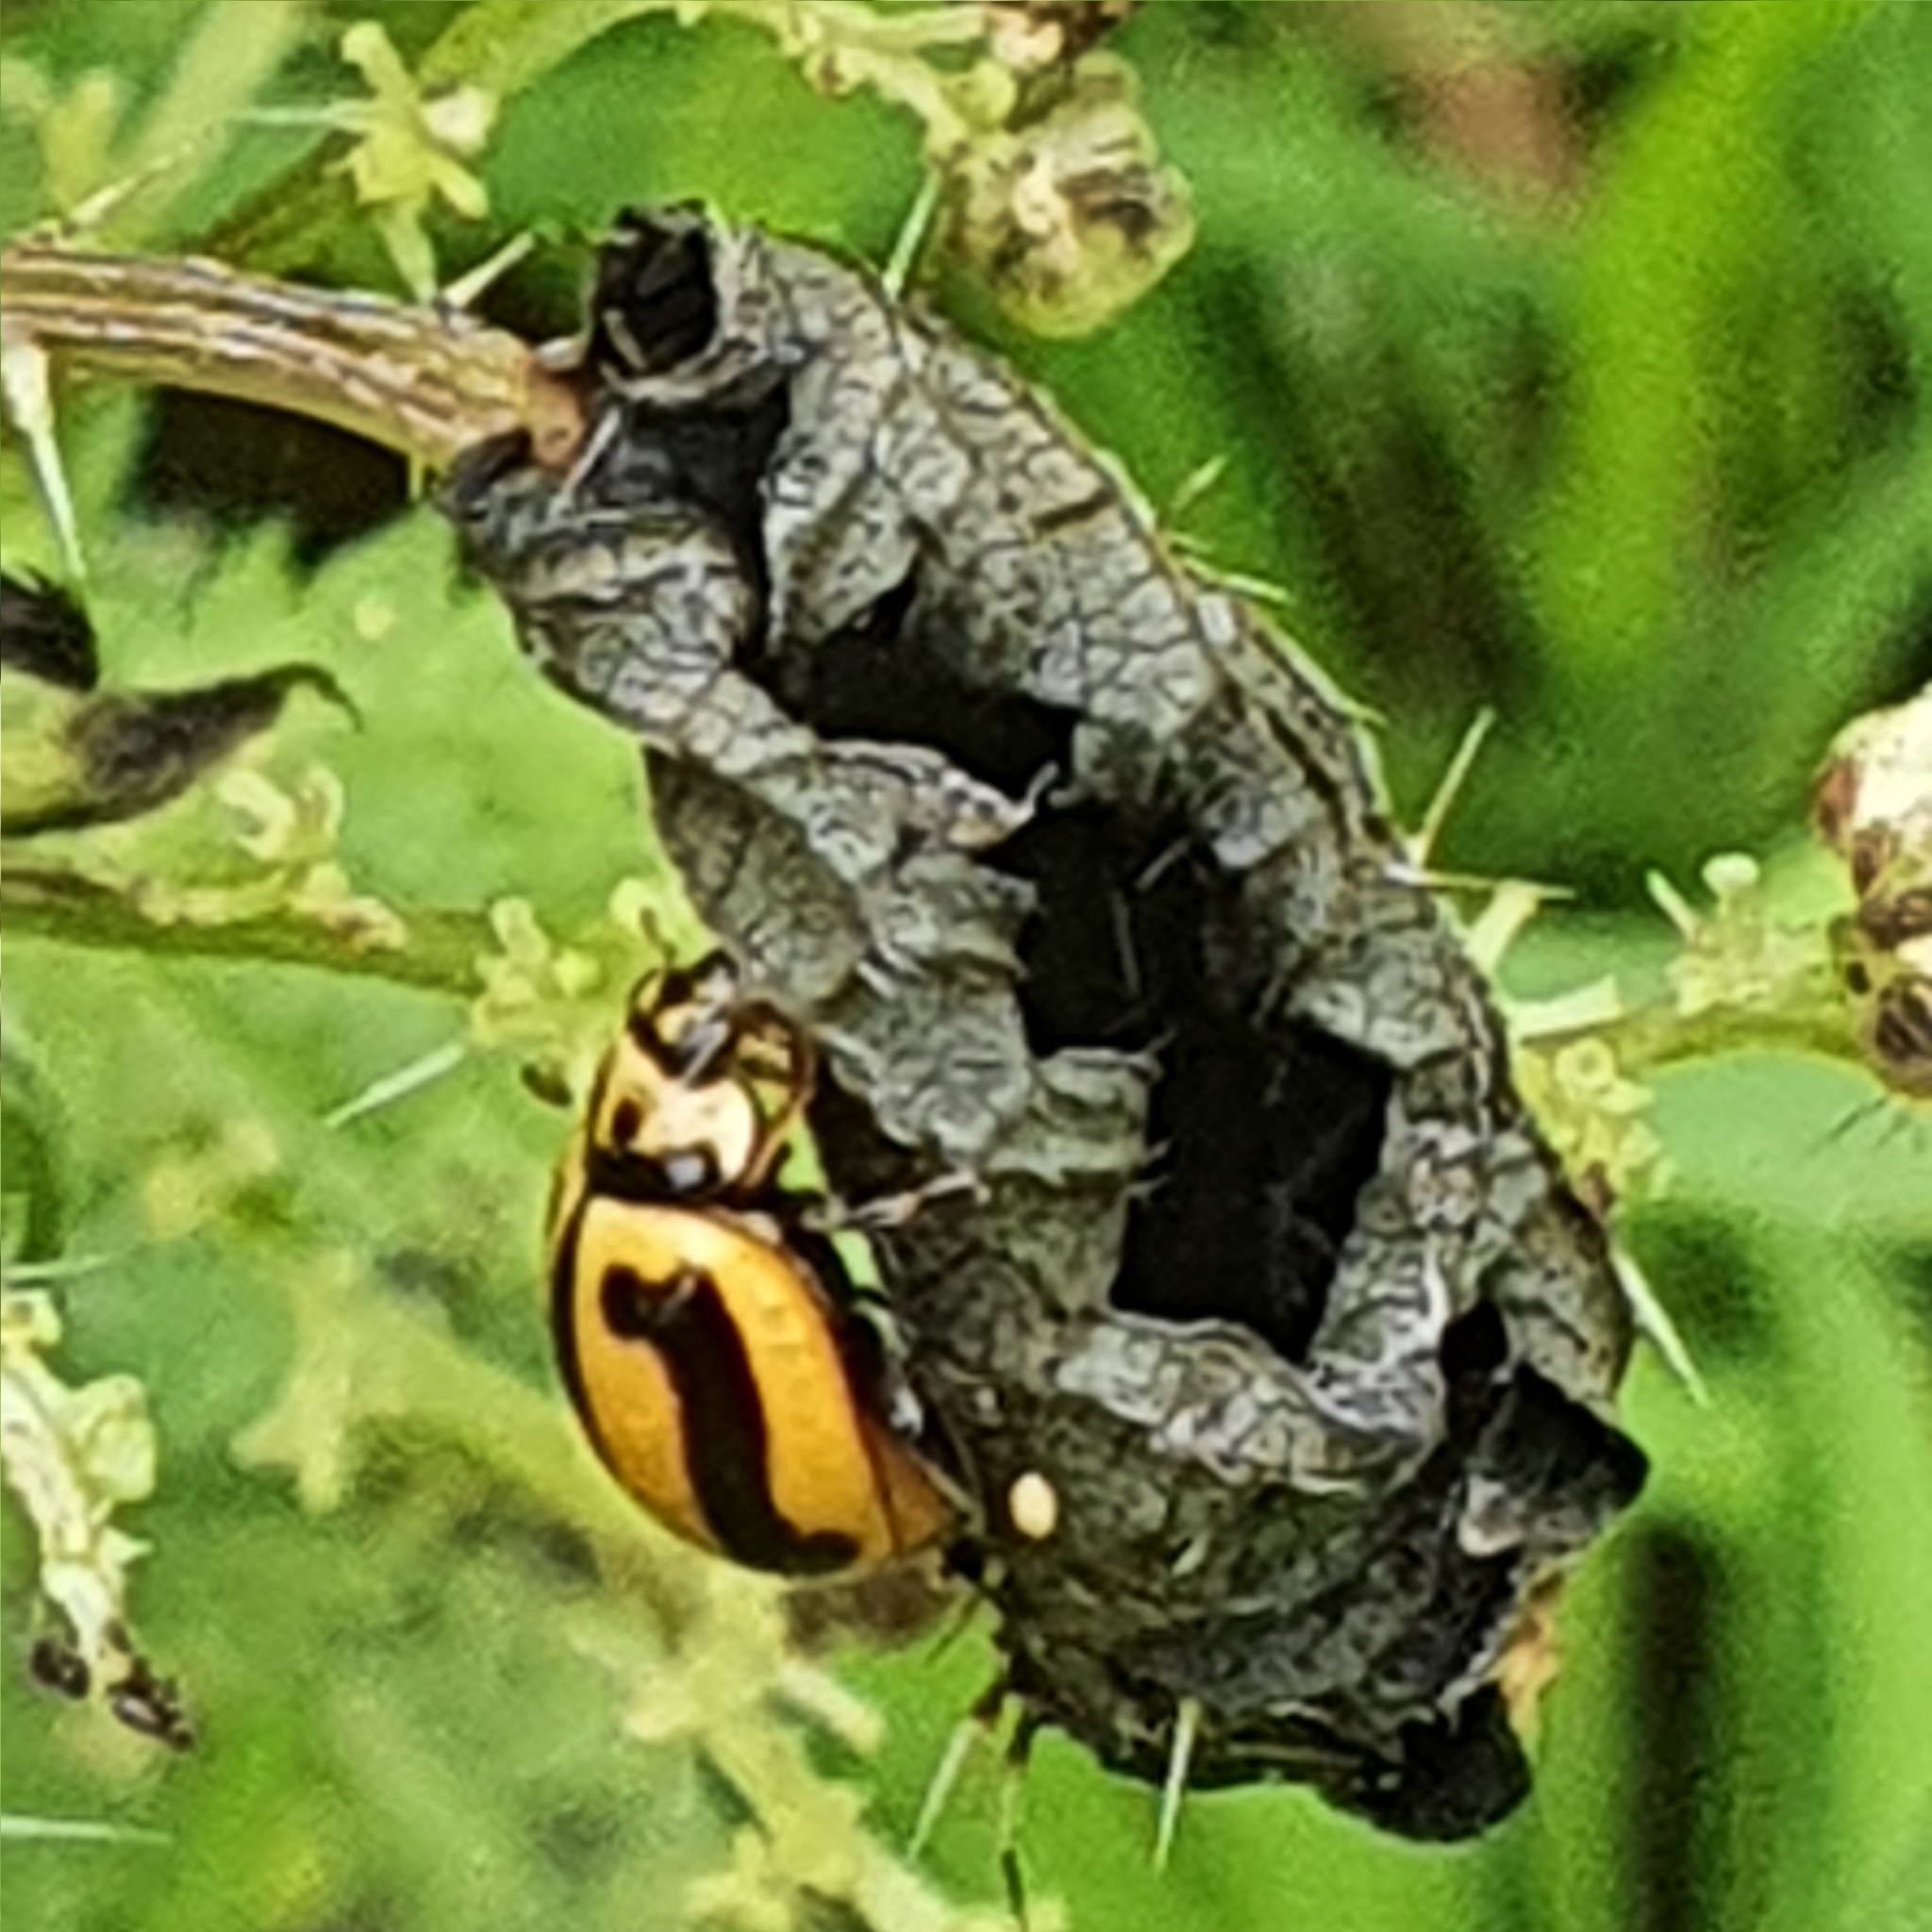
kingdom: Animalia
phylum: Arthropoda
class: Insecta
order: Coleoptera
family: Coccinellidae
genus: Micraspis
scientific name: Micraspis frenata
